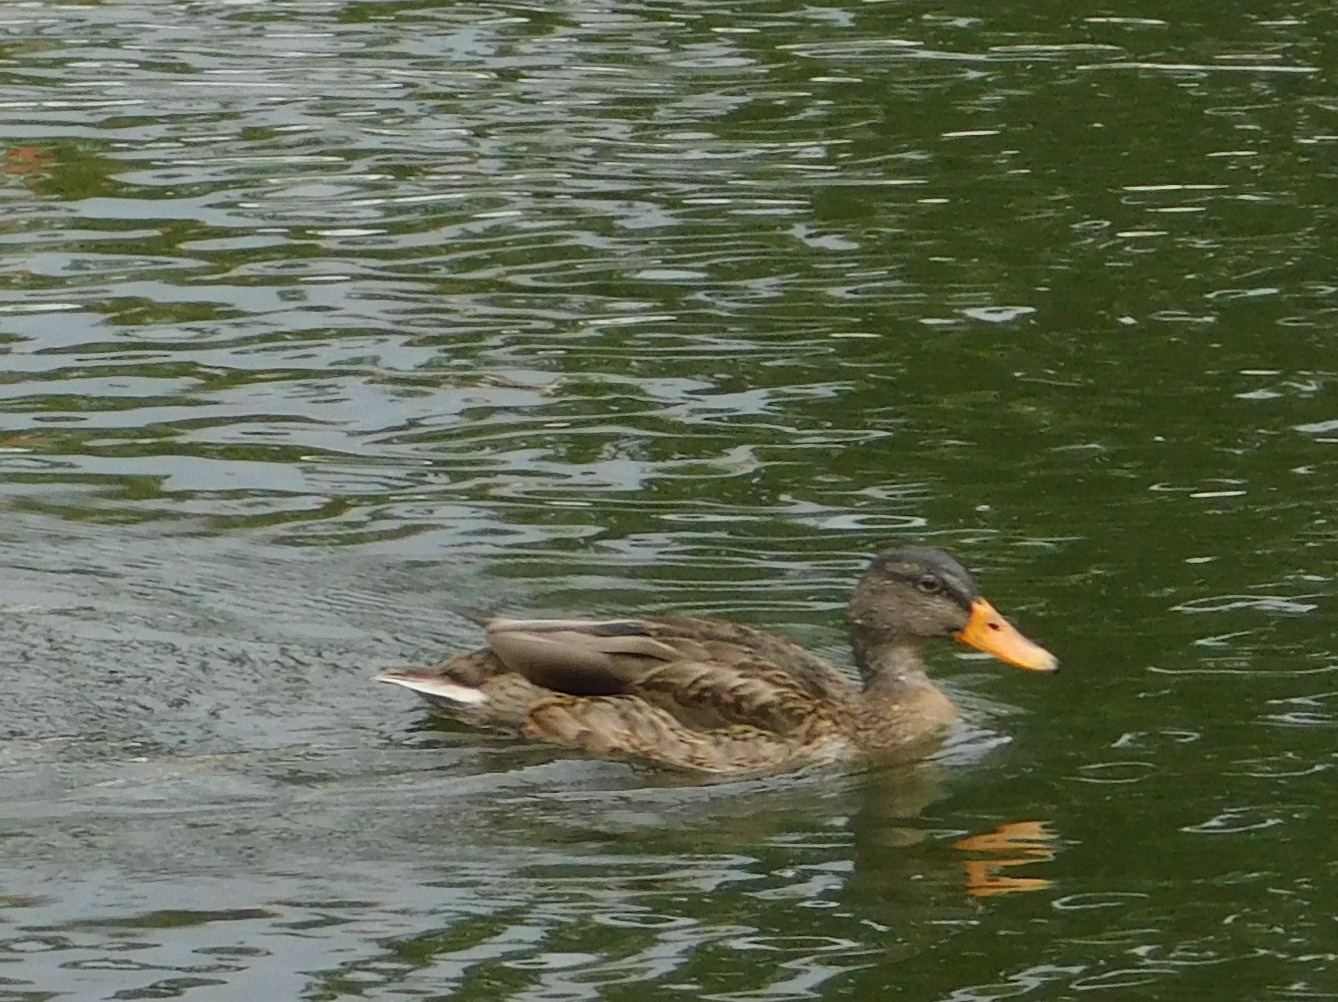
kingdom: Animalia
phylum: Chordata
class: Aves
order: Anseriformes
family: Anatidae
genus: Anas
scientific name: Anas platyrhynchos
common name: Mallard
